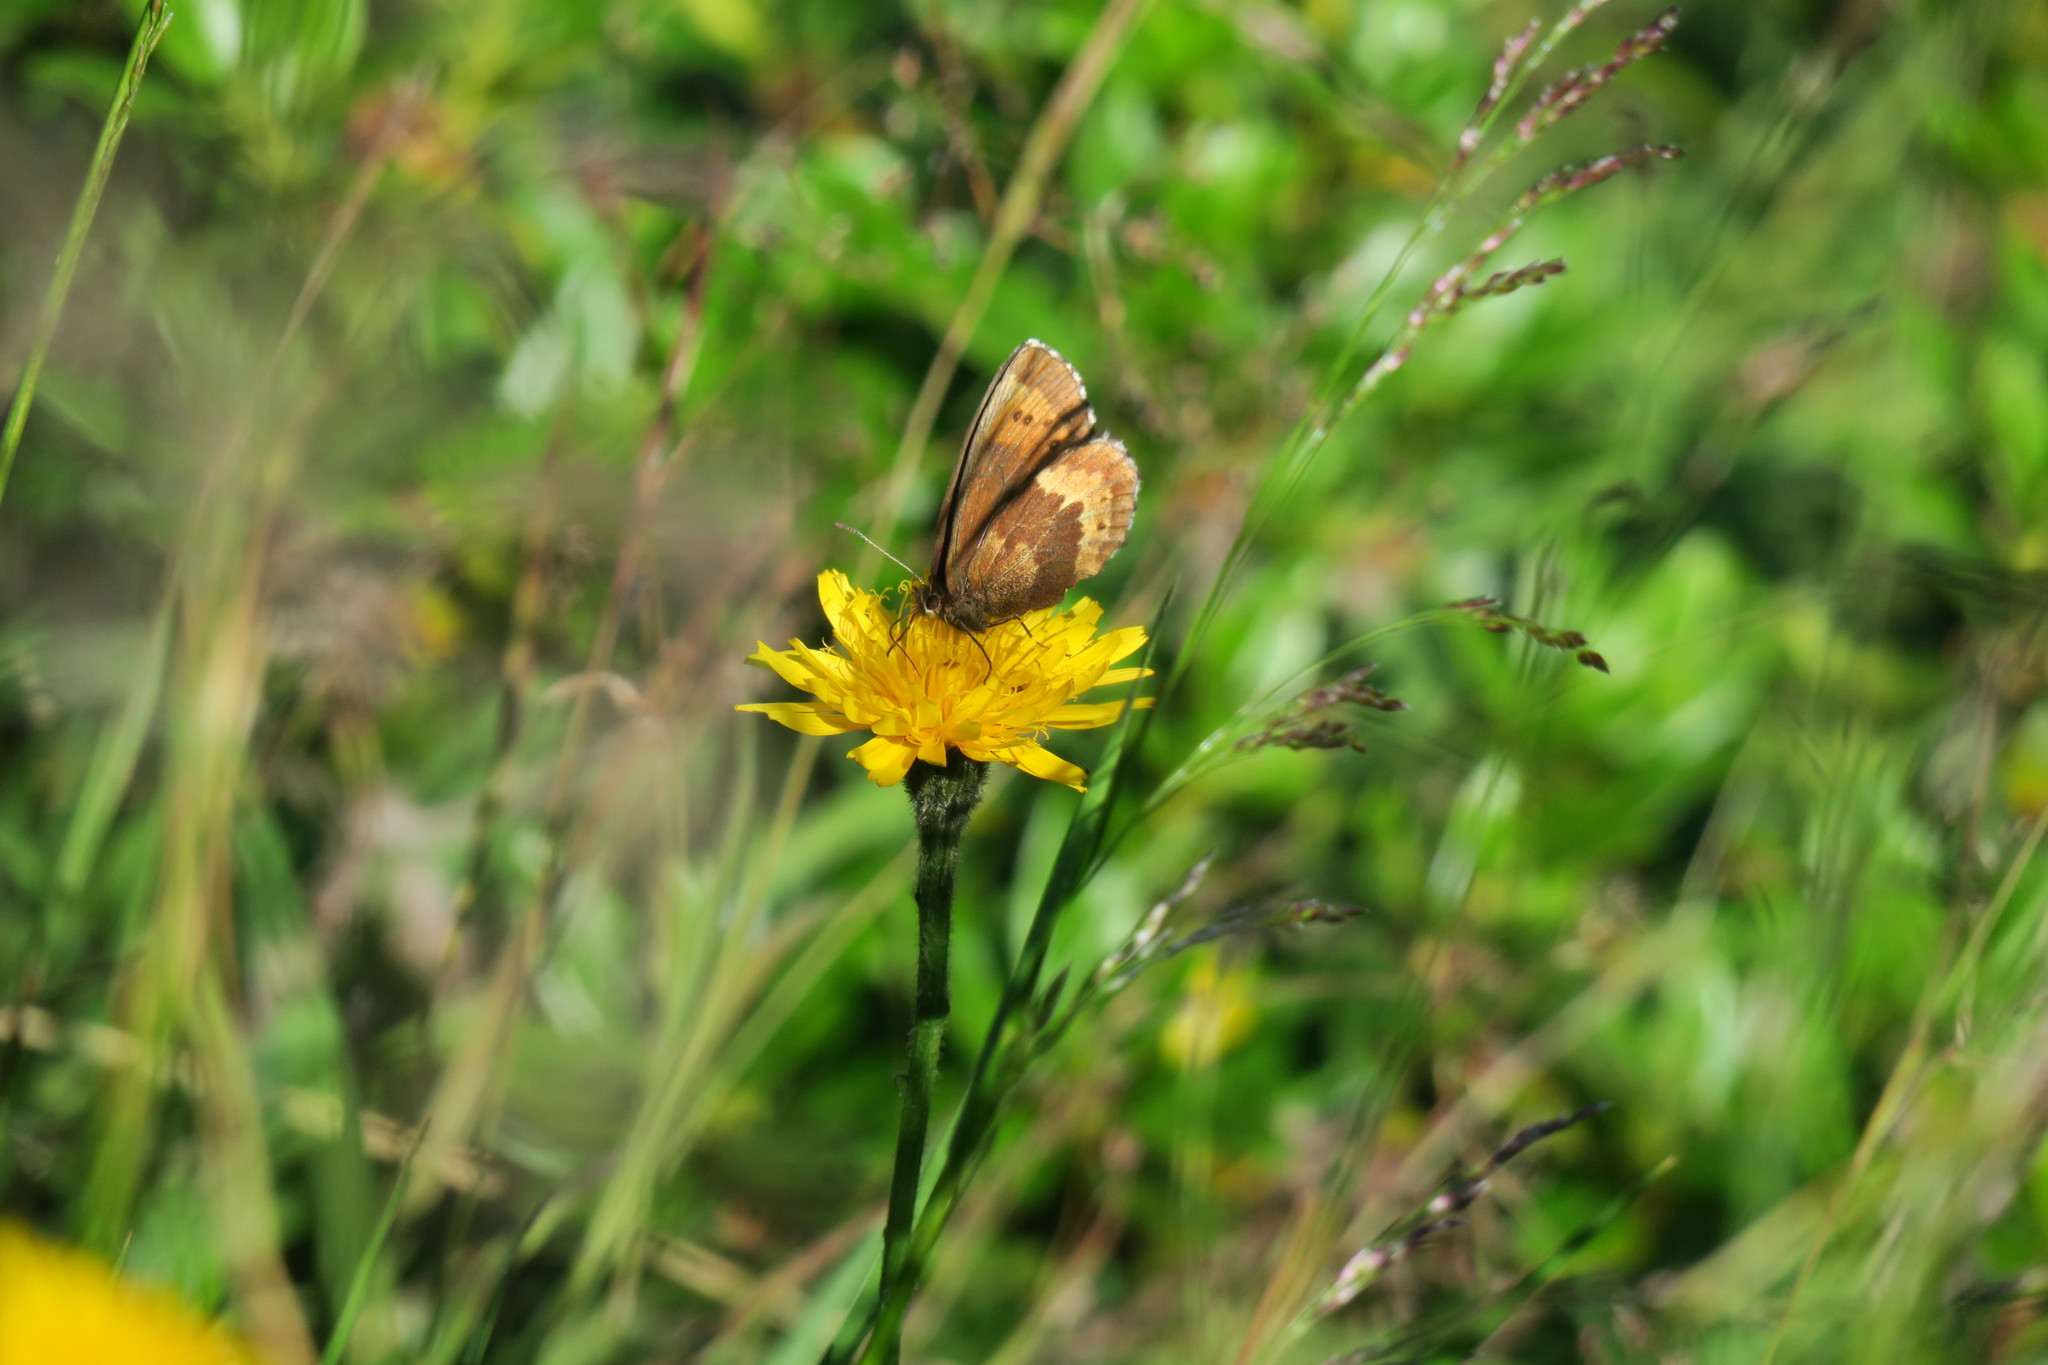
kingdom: Animalia
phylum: Arthropoda
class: Insecta
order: Lepidoptera
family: Nymphalidae
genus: Erebia
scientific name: Erebia euryale
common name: Large ringlet
